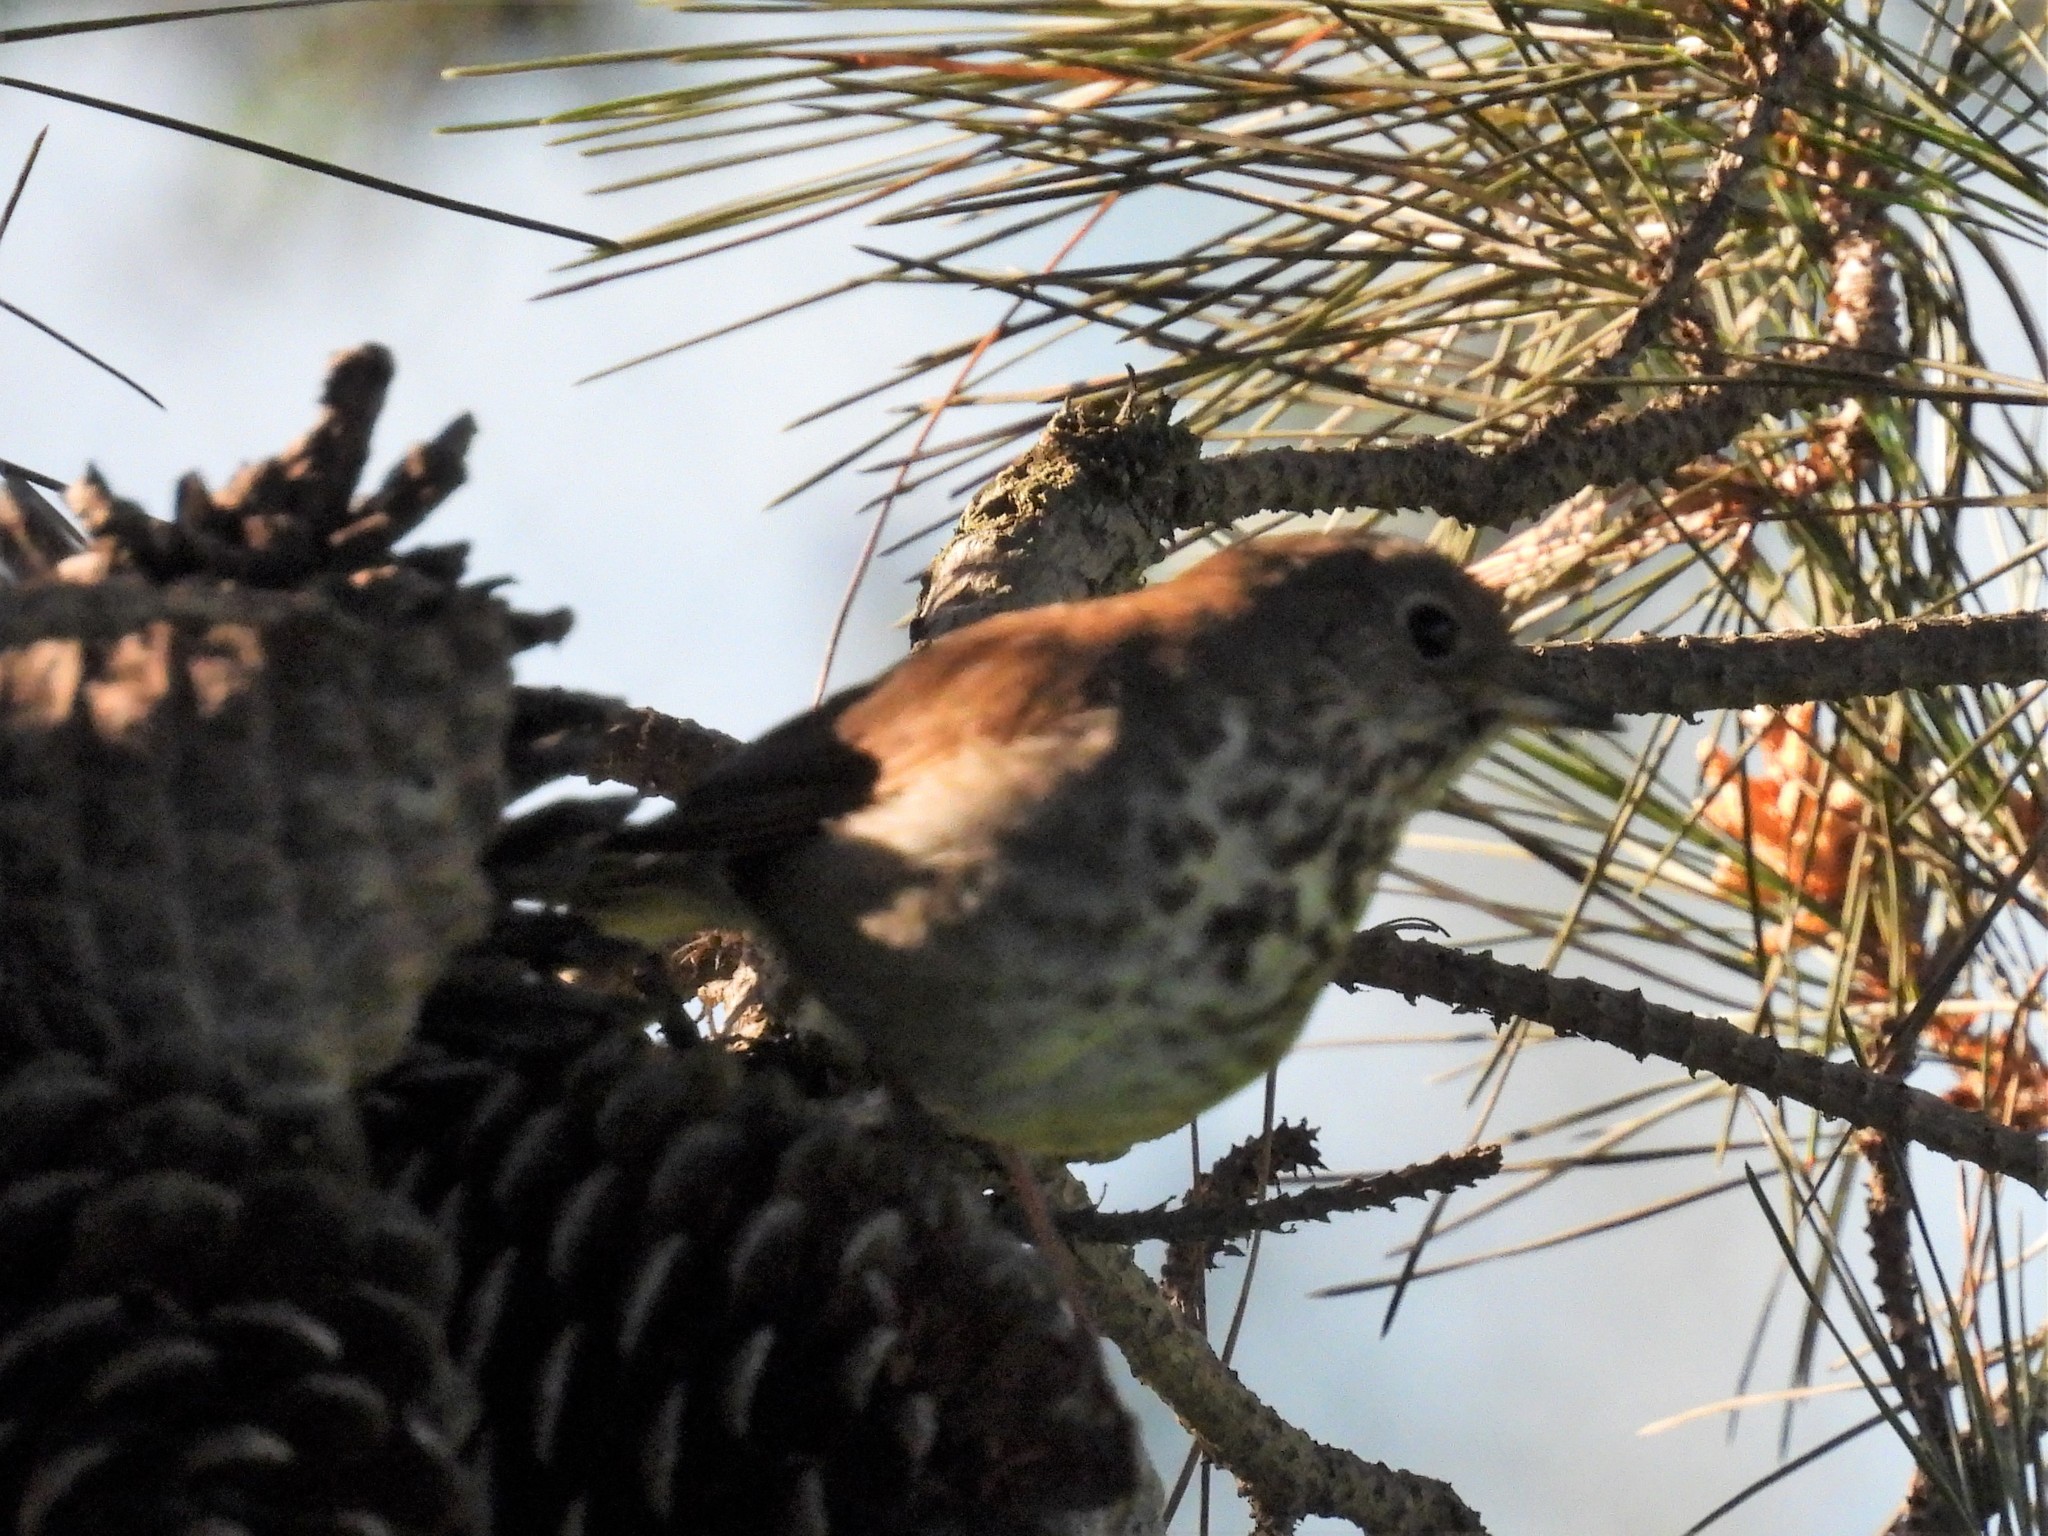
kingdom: Animalia
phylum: Chordata
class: Aves
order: Passeriformes
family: Turdidae
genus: Catharus
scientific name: Catharus guttatus
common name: Hermit thrush
